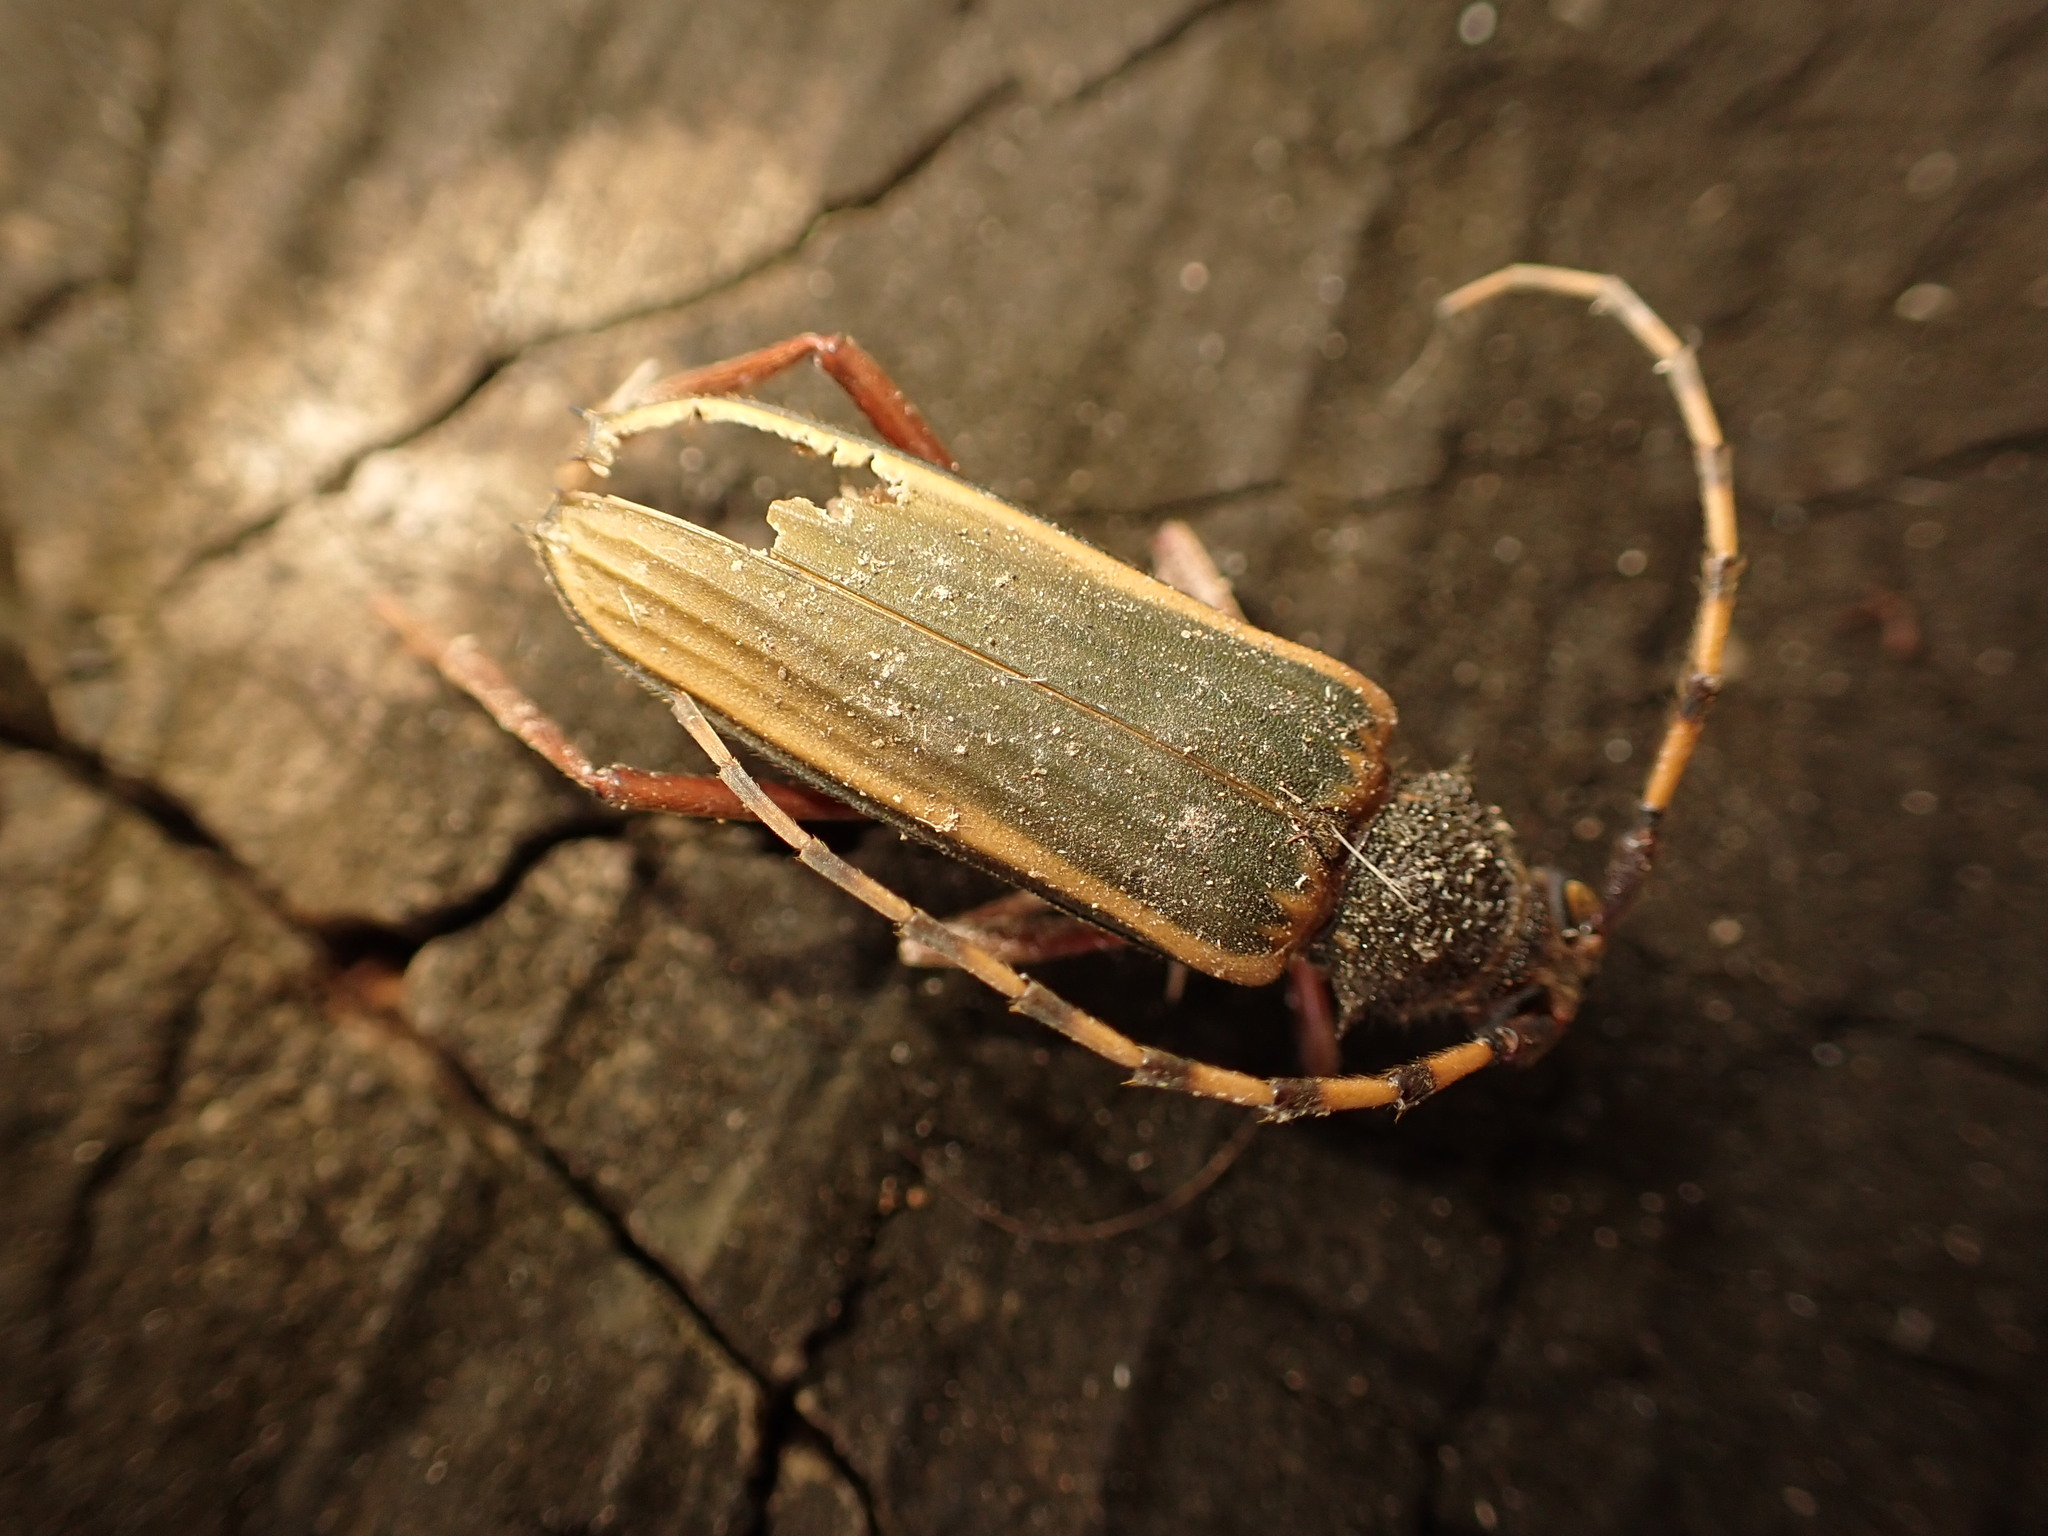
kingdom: Animalia
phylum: Arthropoda
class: Insecta
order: Coleoptera
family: Cerambycidae
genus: Chlorida
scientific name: Chlorida costata
